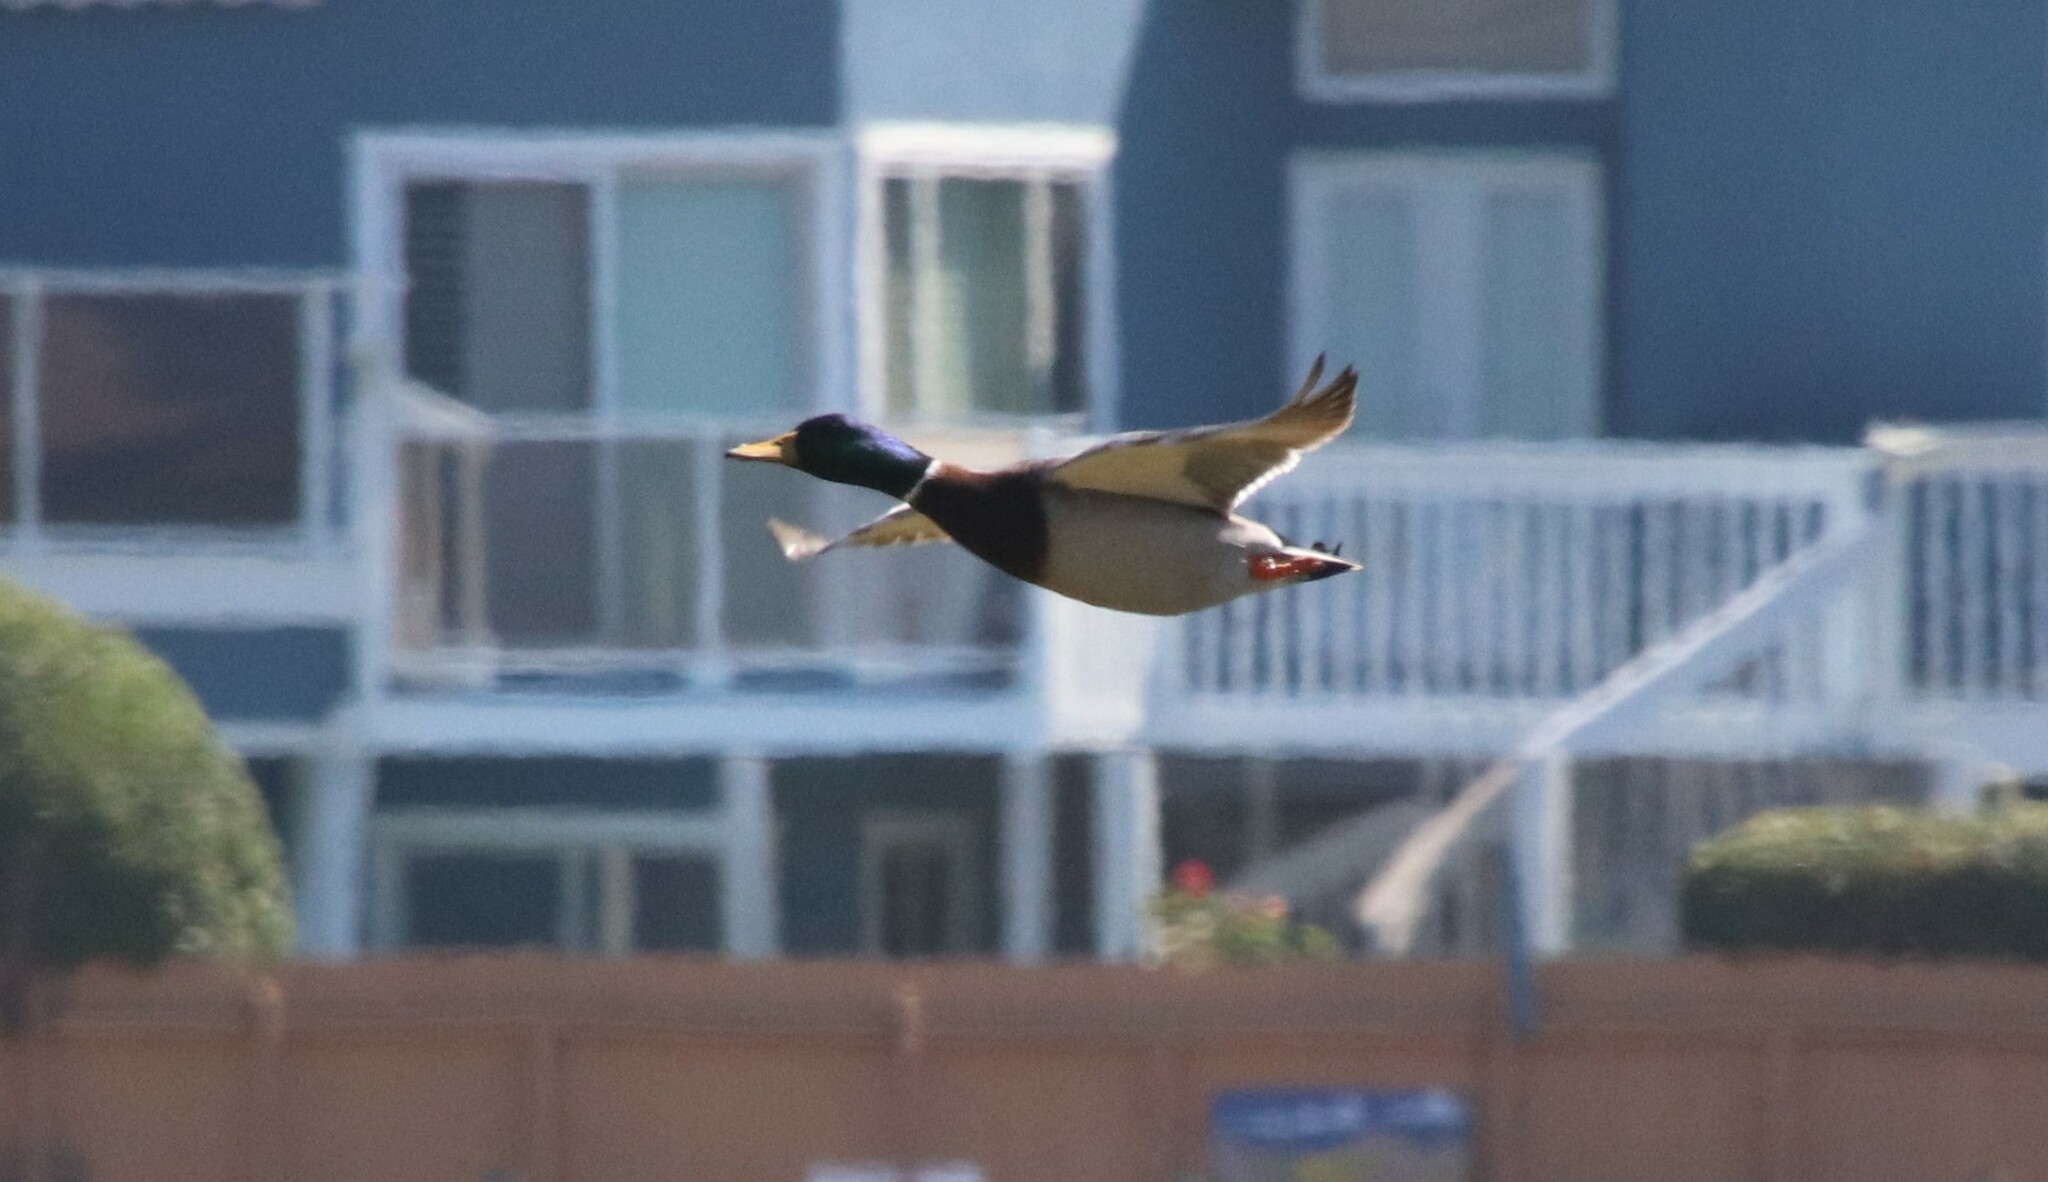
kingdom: Animalia
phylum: Chordata
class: Aves
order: Anseriformes
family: Anatidae
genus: Anas
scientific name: Anas platyrhynchos
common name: Mallard
